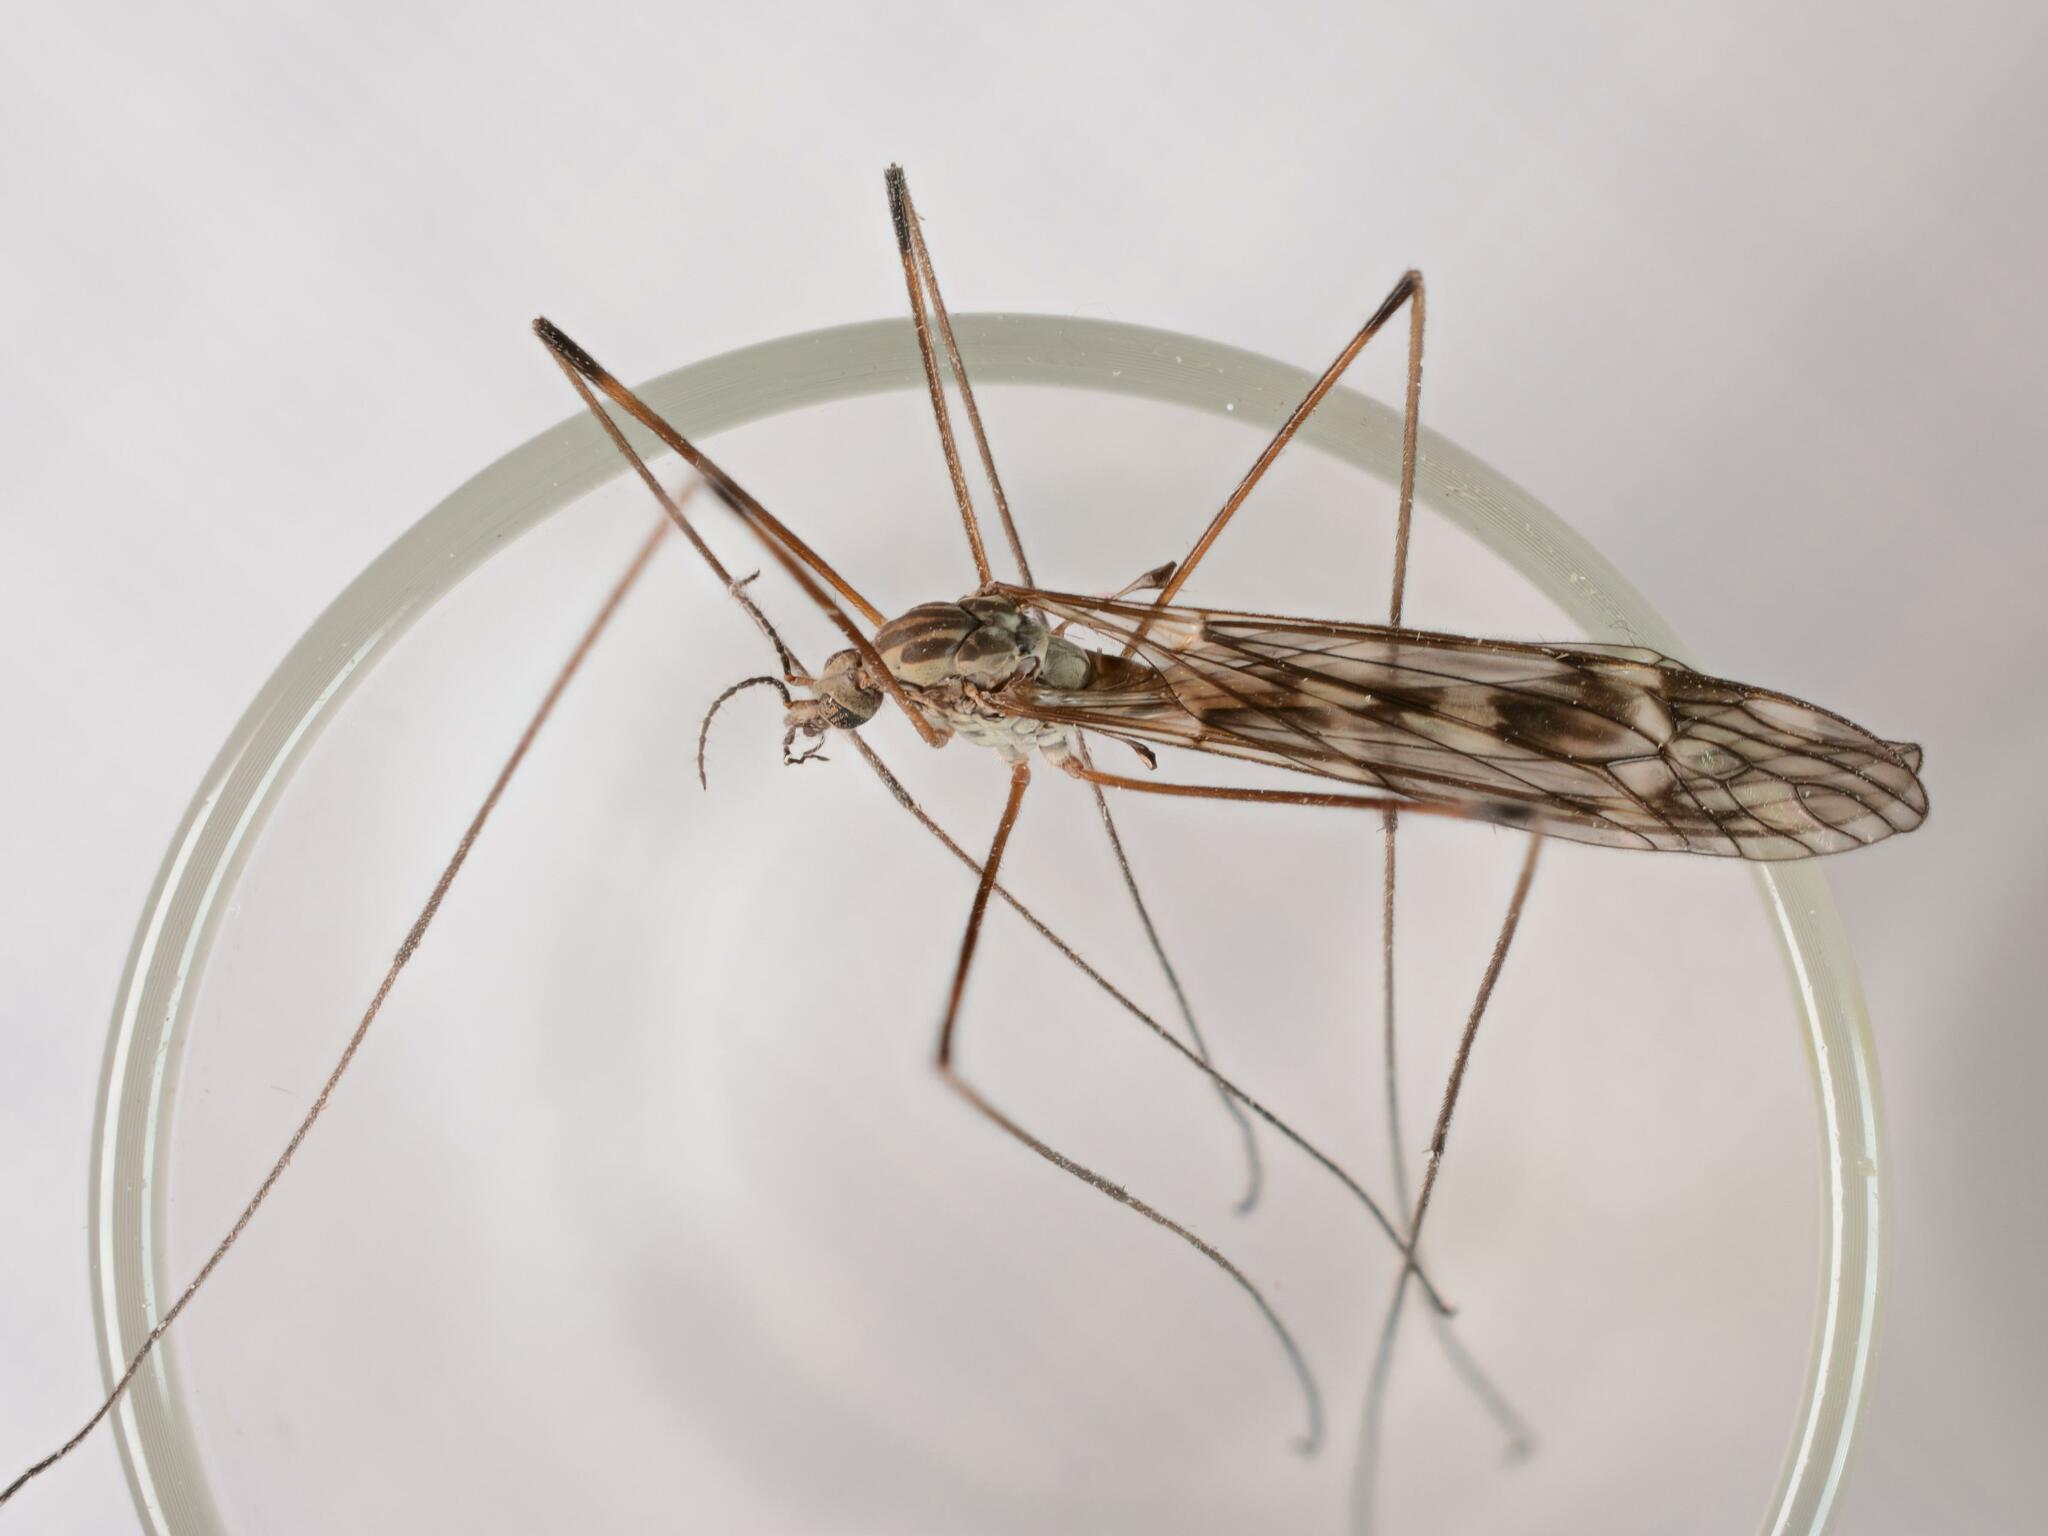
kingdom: Animalia
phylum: Arthropoda
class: Insecta
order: Diptera
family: Tipulidae
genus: Tipula
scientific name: Tipula confusa
